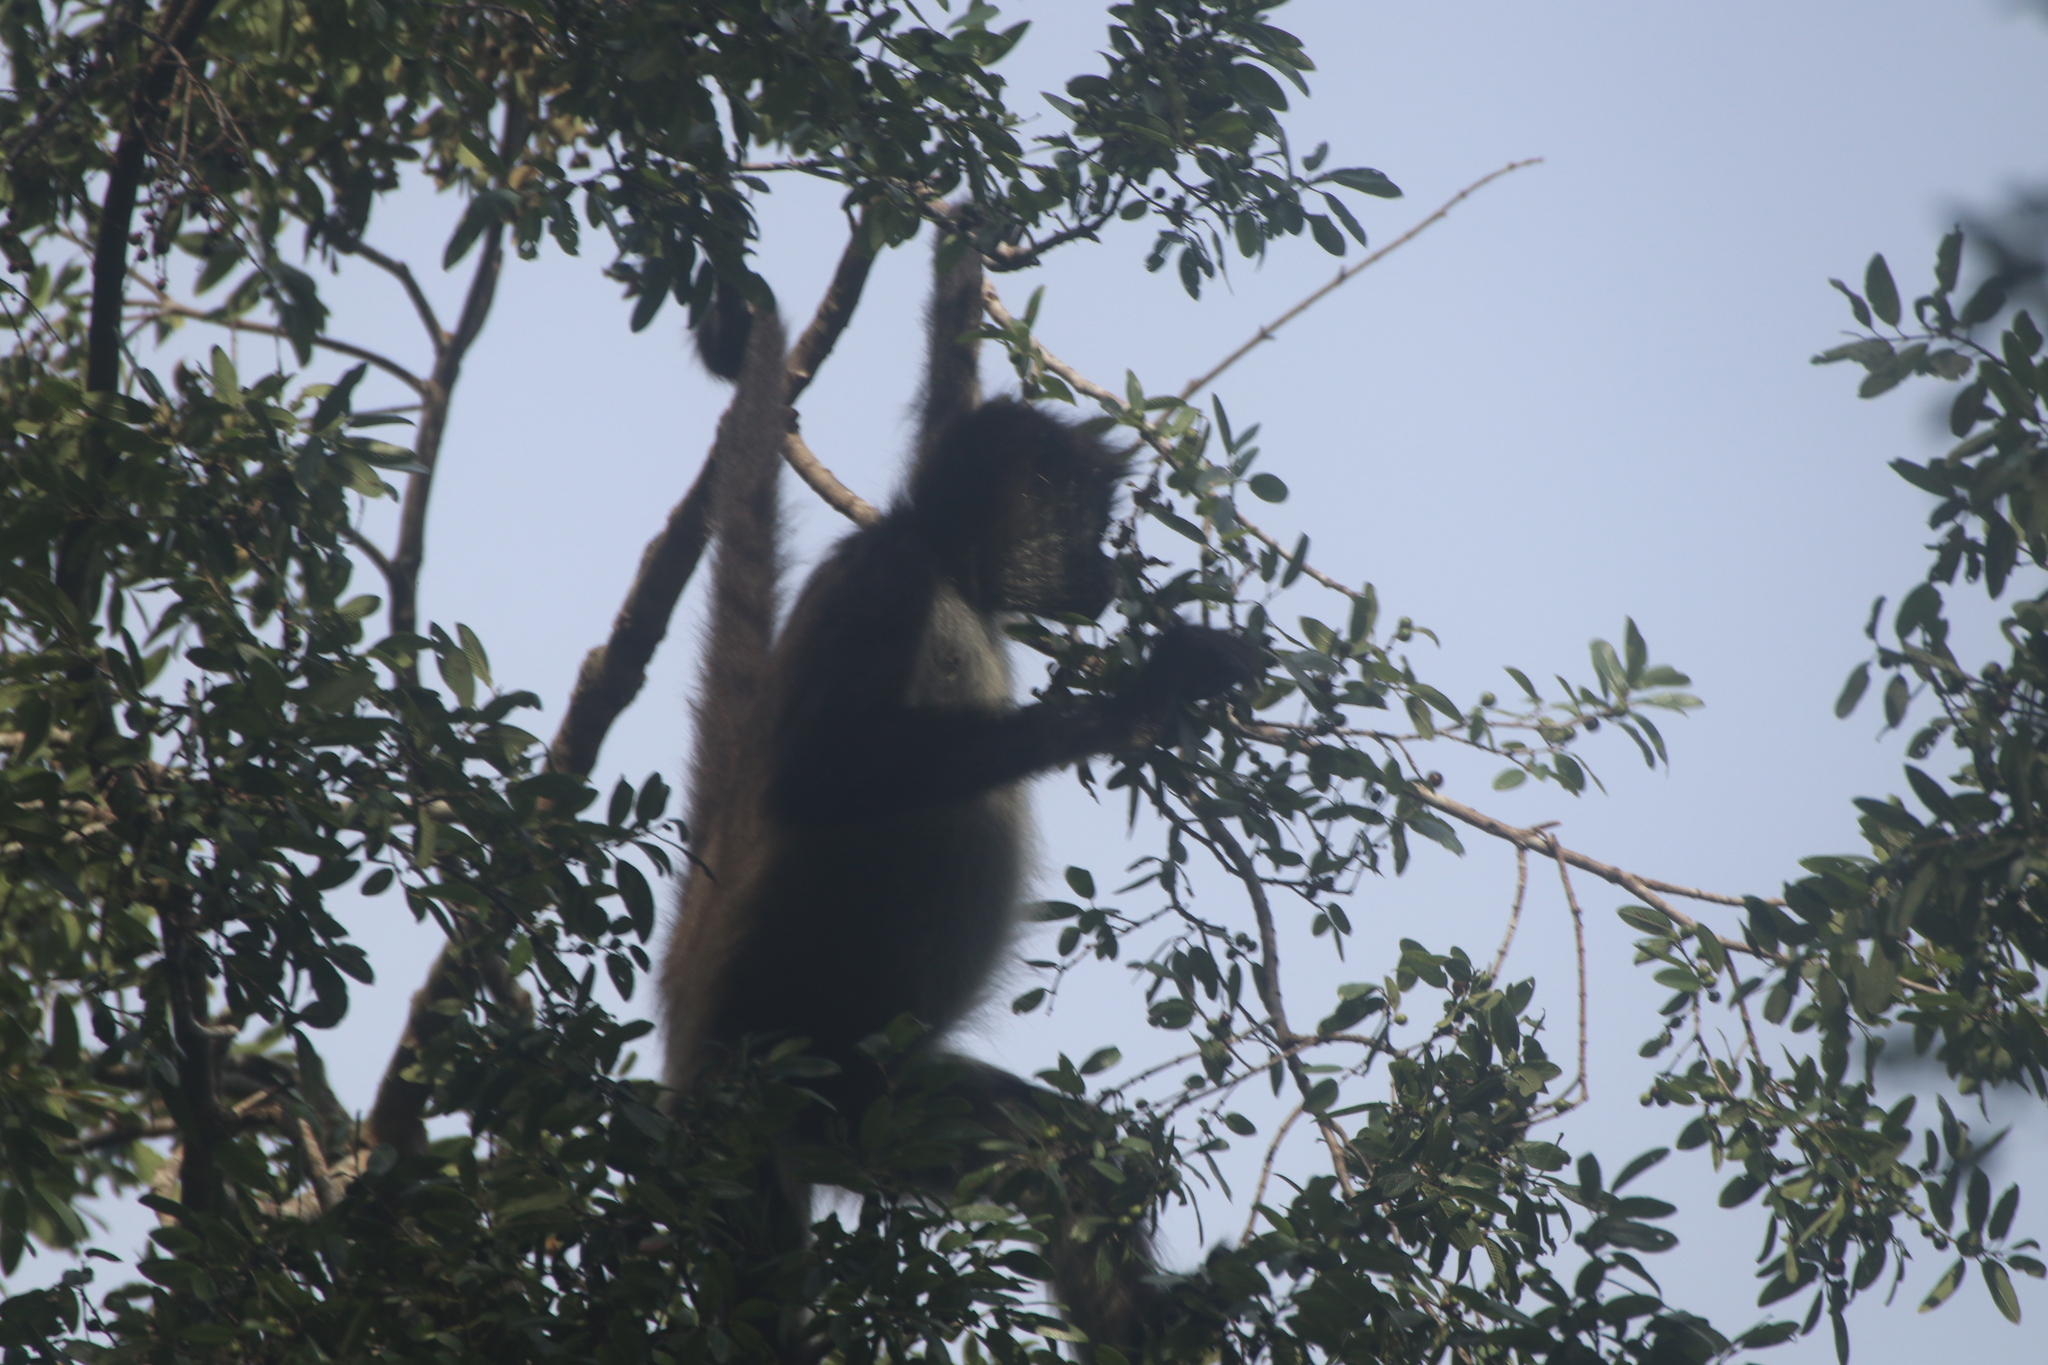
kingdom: Animalia
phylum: Chordata
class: Mammalia
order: Primates
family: Atelidae
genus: Ateles
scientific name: Ateles geoffroyi
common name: Black-handed spider monkey
